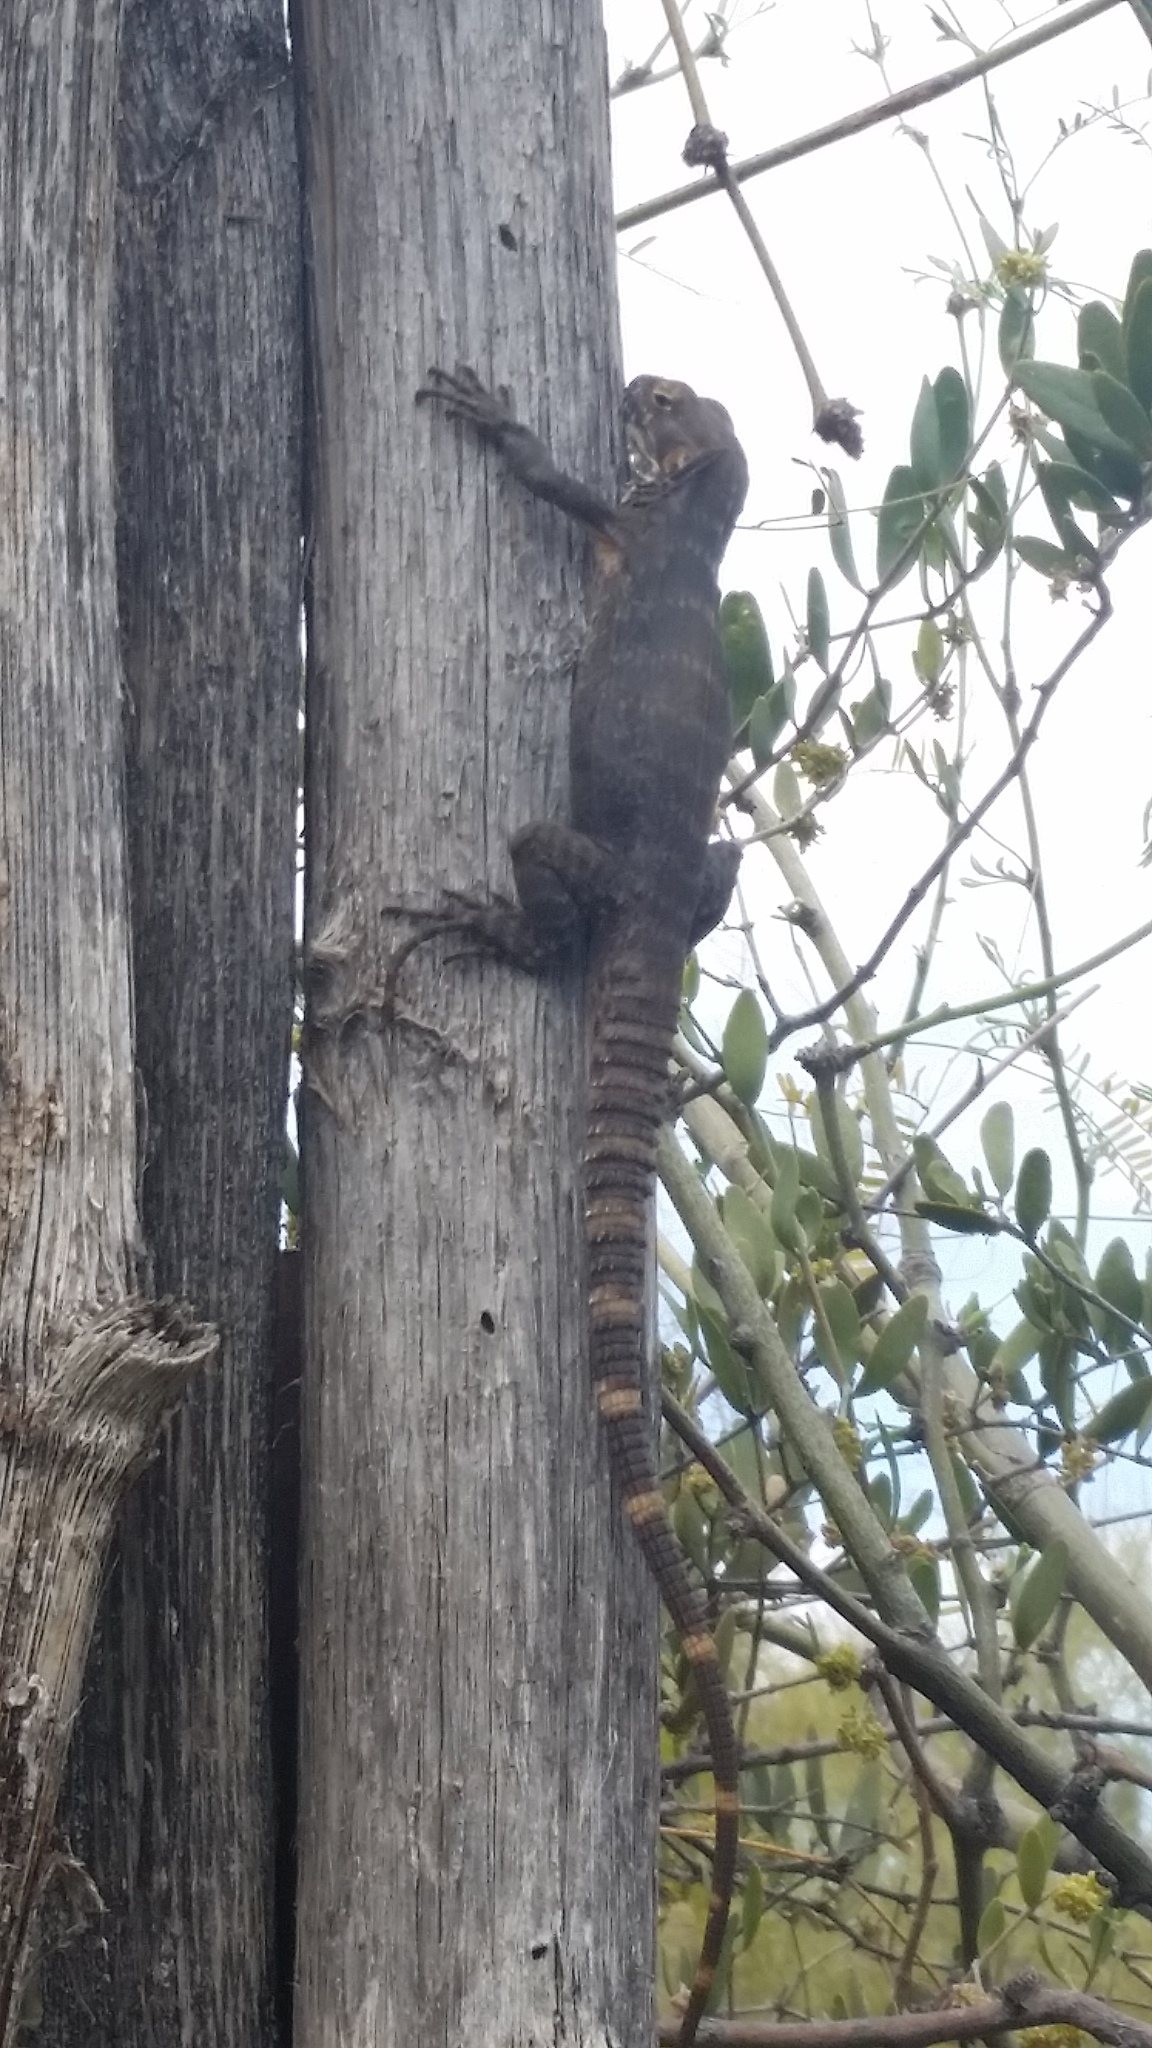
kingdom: Animalia
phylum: Chordata
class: Squamata
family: Iguanidae
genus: Ctenosaura
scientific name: Ctenosaura
